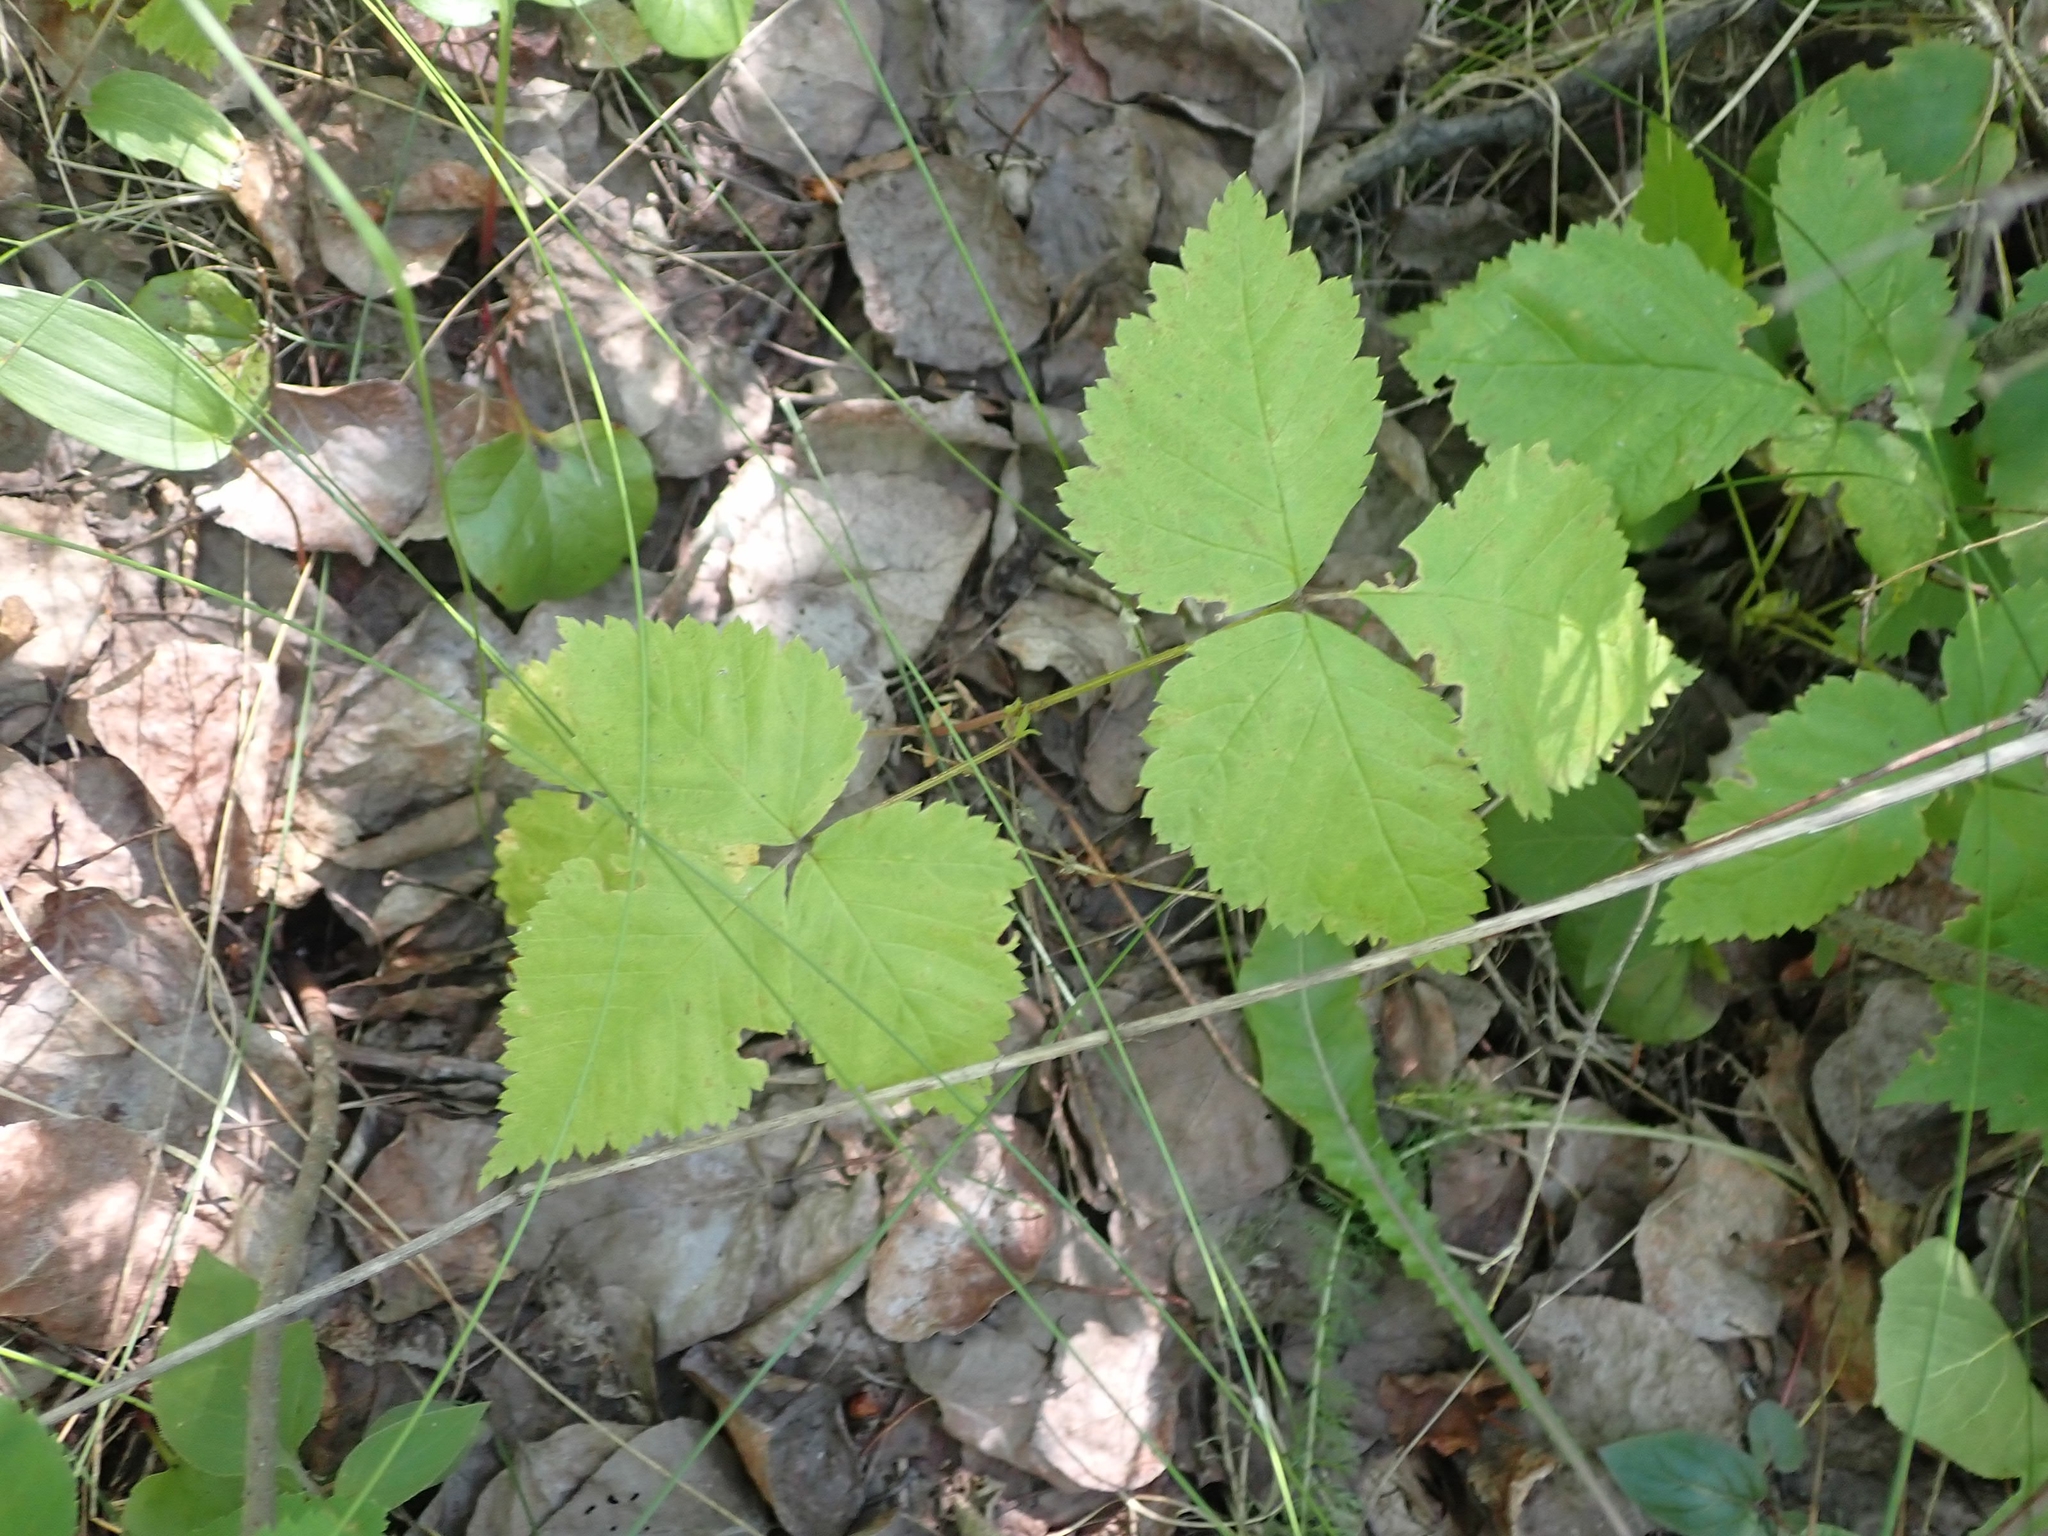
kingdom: Plantae
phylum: Tracheophyta
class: Magnoliopsida
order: Rosales
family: Rosaceae
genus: Rubus
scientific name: Rubus pubescens
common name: Dwarf raspberry
